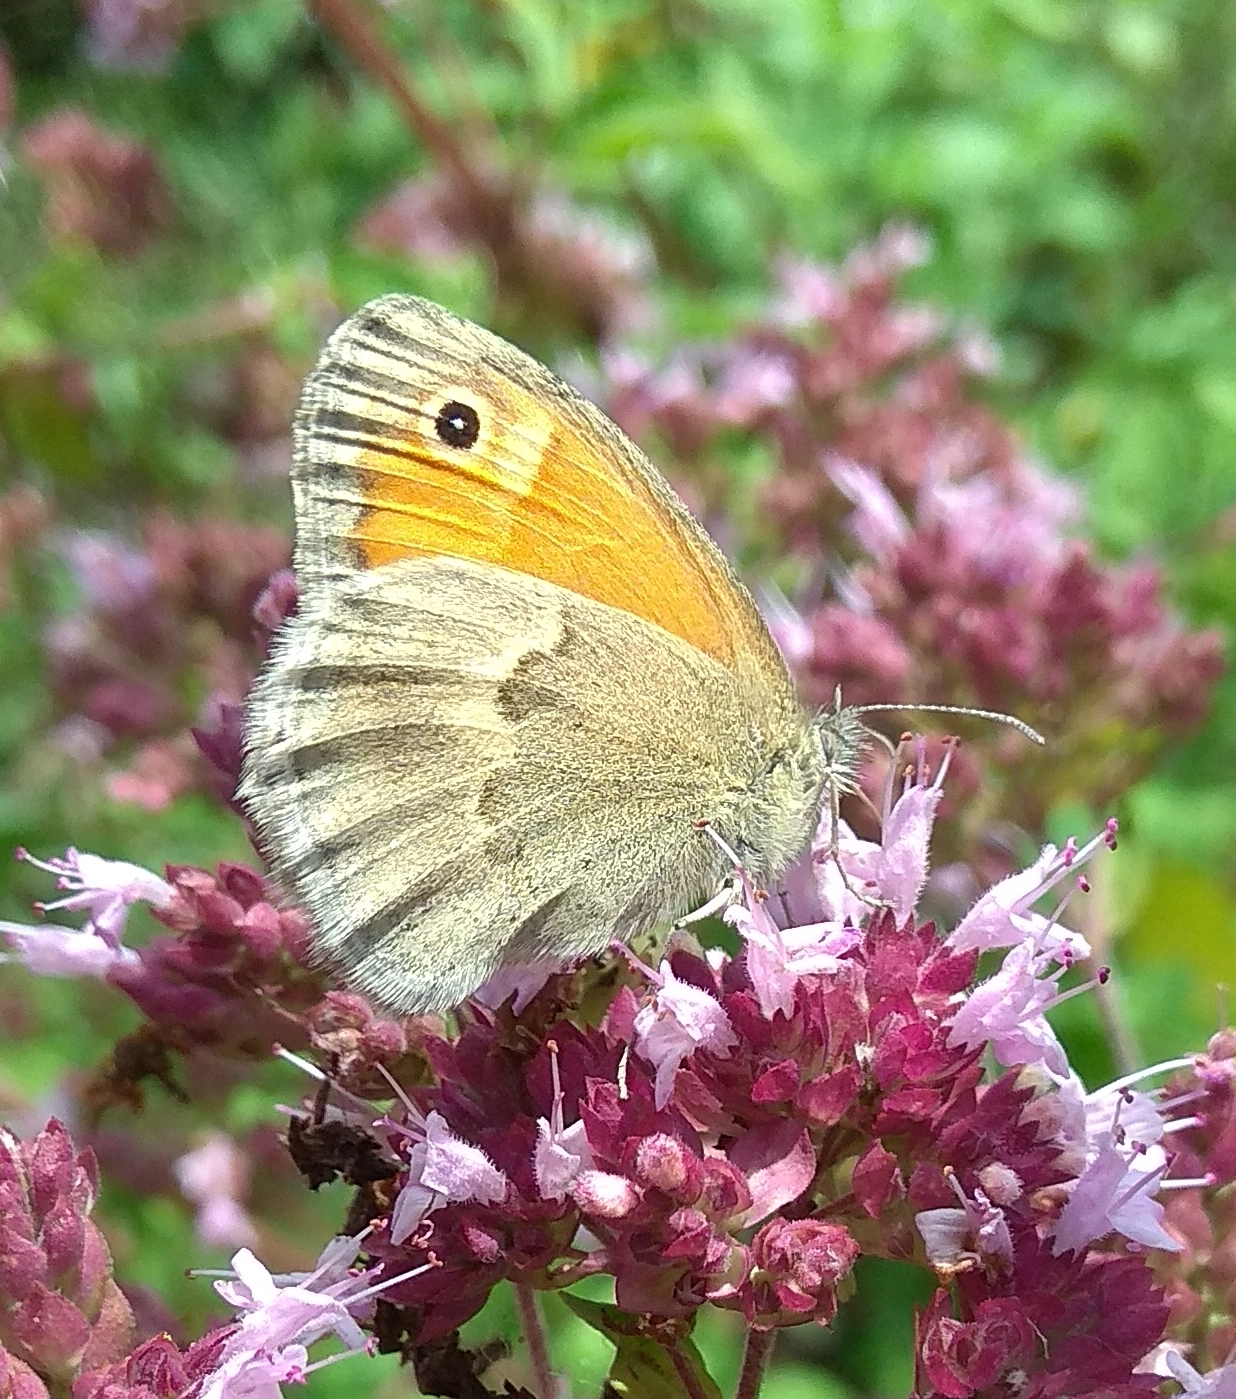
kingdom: Animalia
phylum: Arthropoda
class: Insecta
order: Lepidoptera
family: Nymphalidae
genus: Coenonympha
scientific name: Coenonympha pamphilus
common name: Small heath
